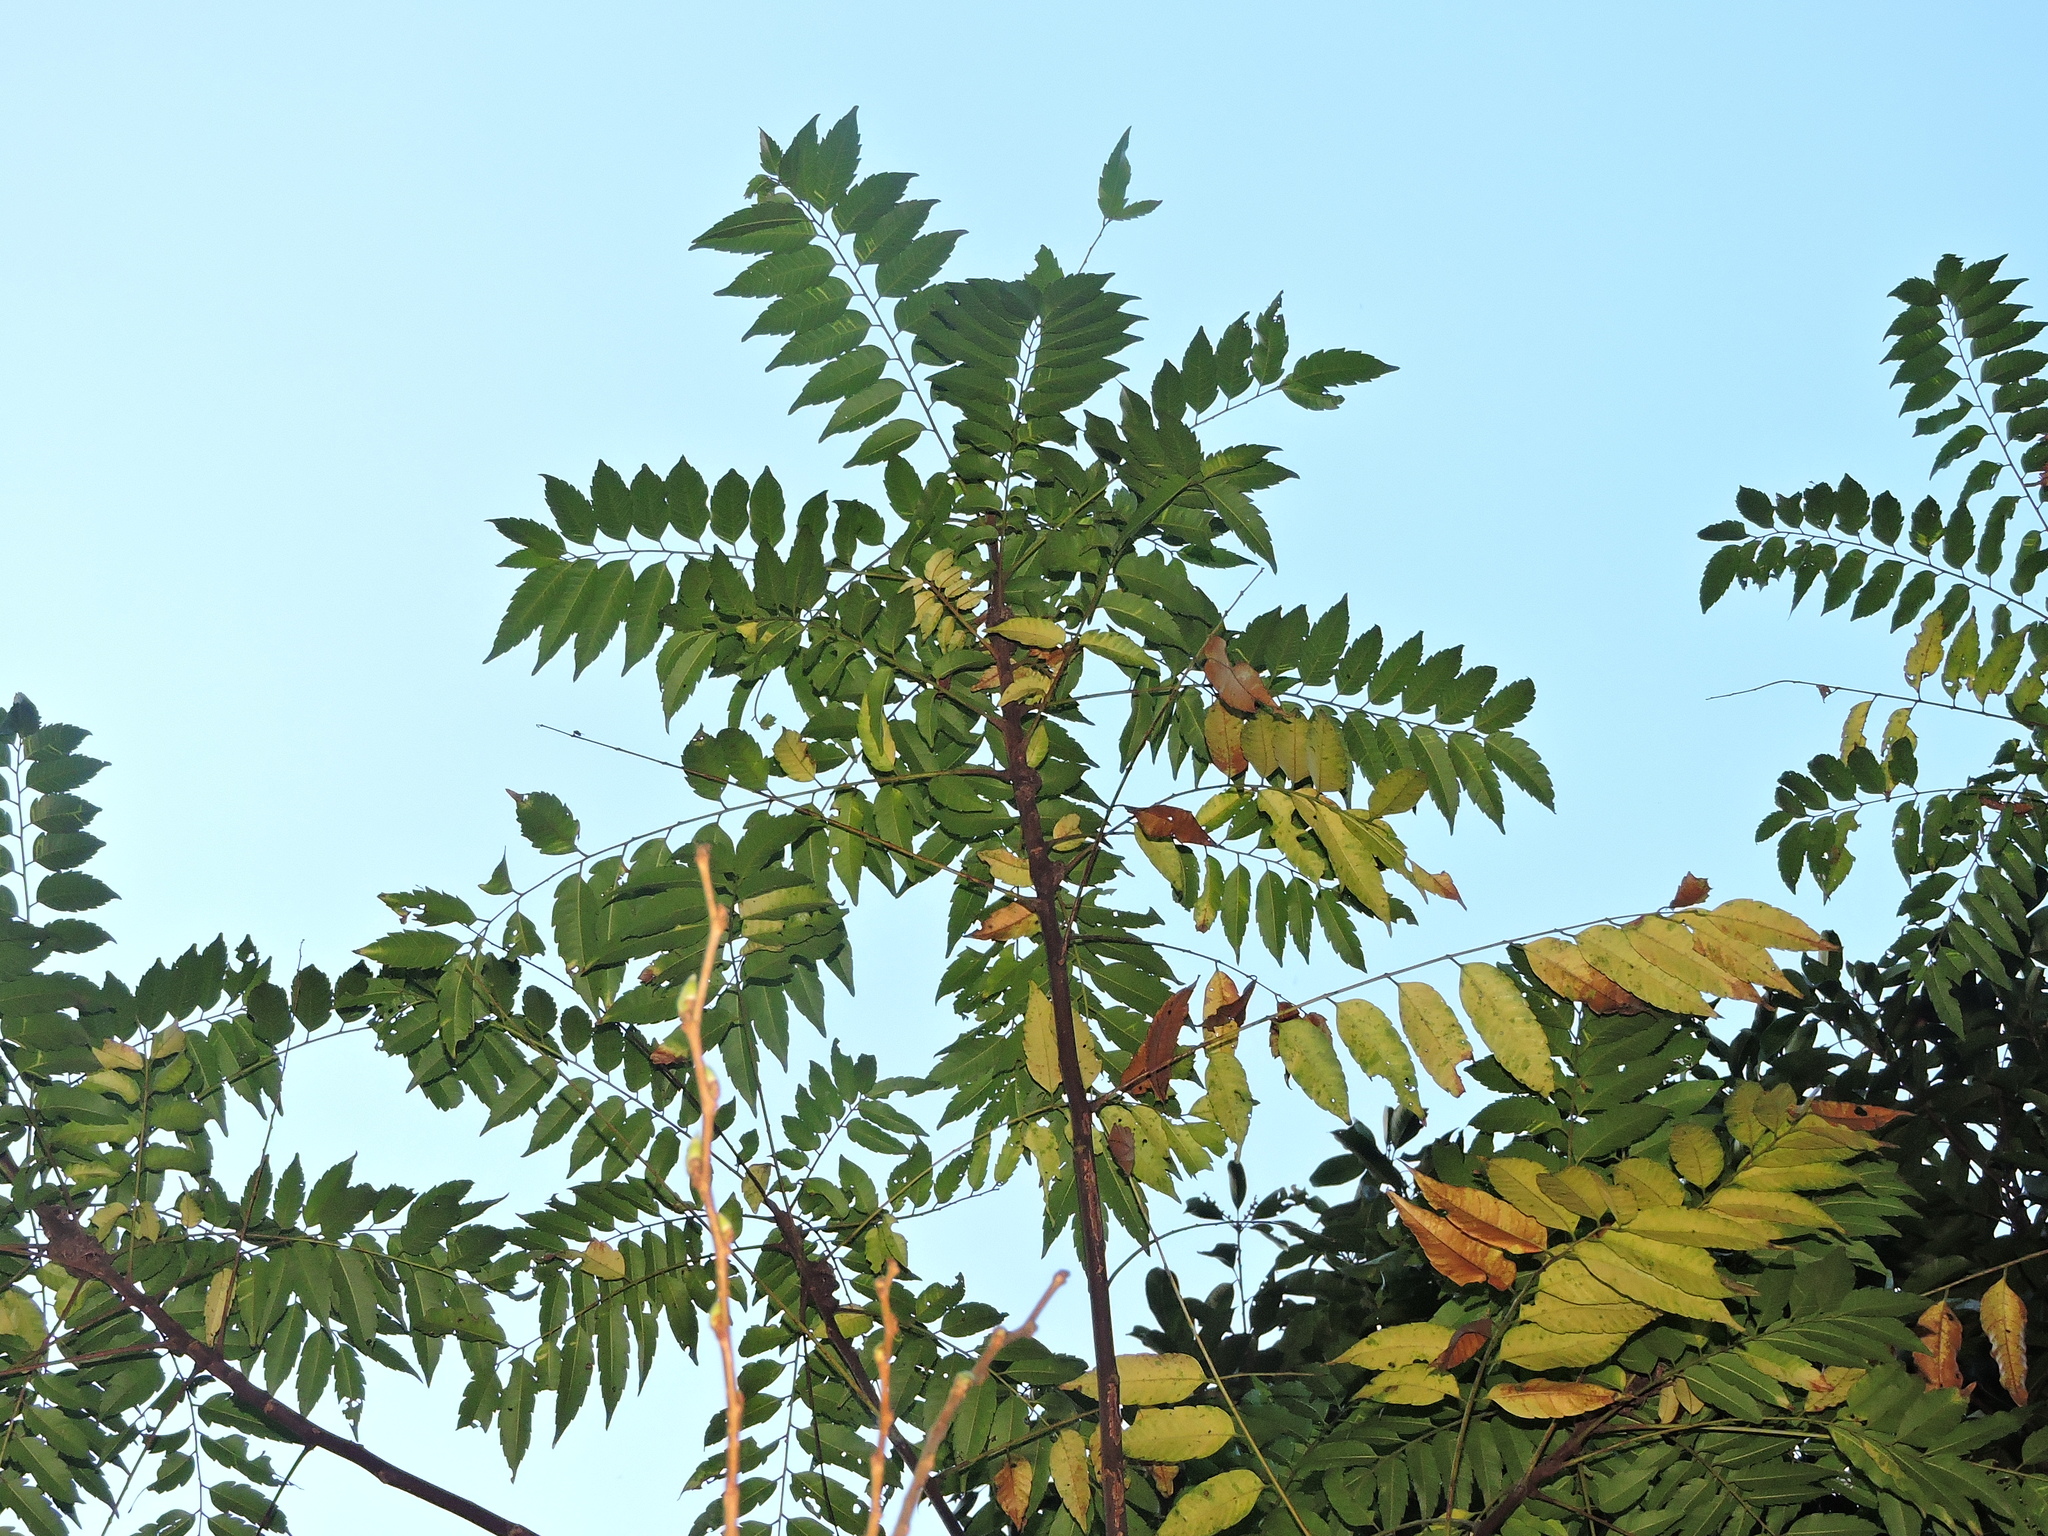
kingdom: Plantae
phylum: Tracheophyta
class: Magnoliopsida
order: Sapindales
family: Sapindaceae
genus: Eurycorymbus
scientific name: Eurycorymbus cavaleriei
